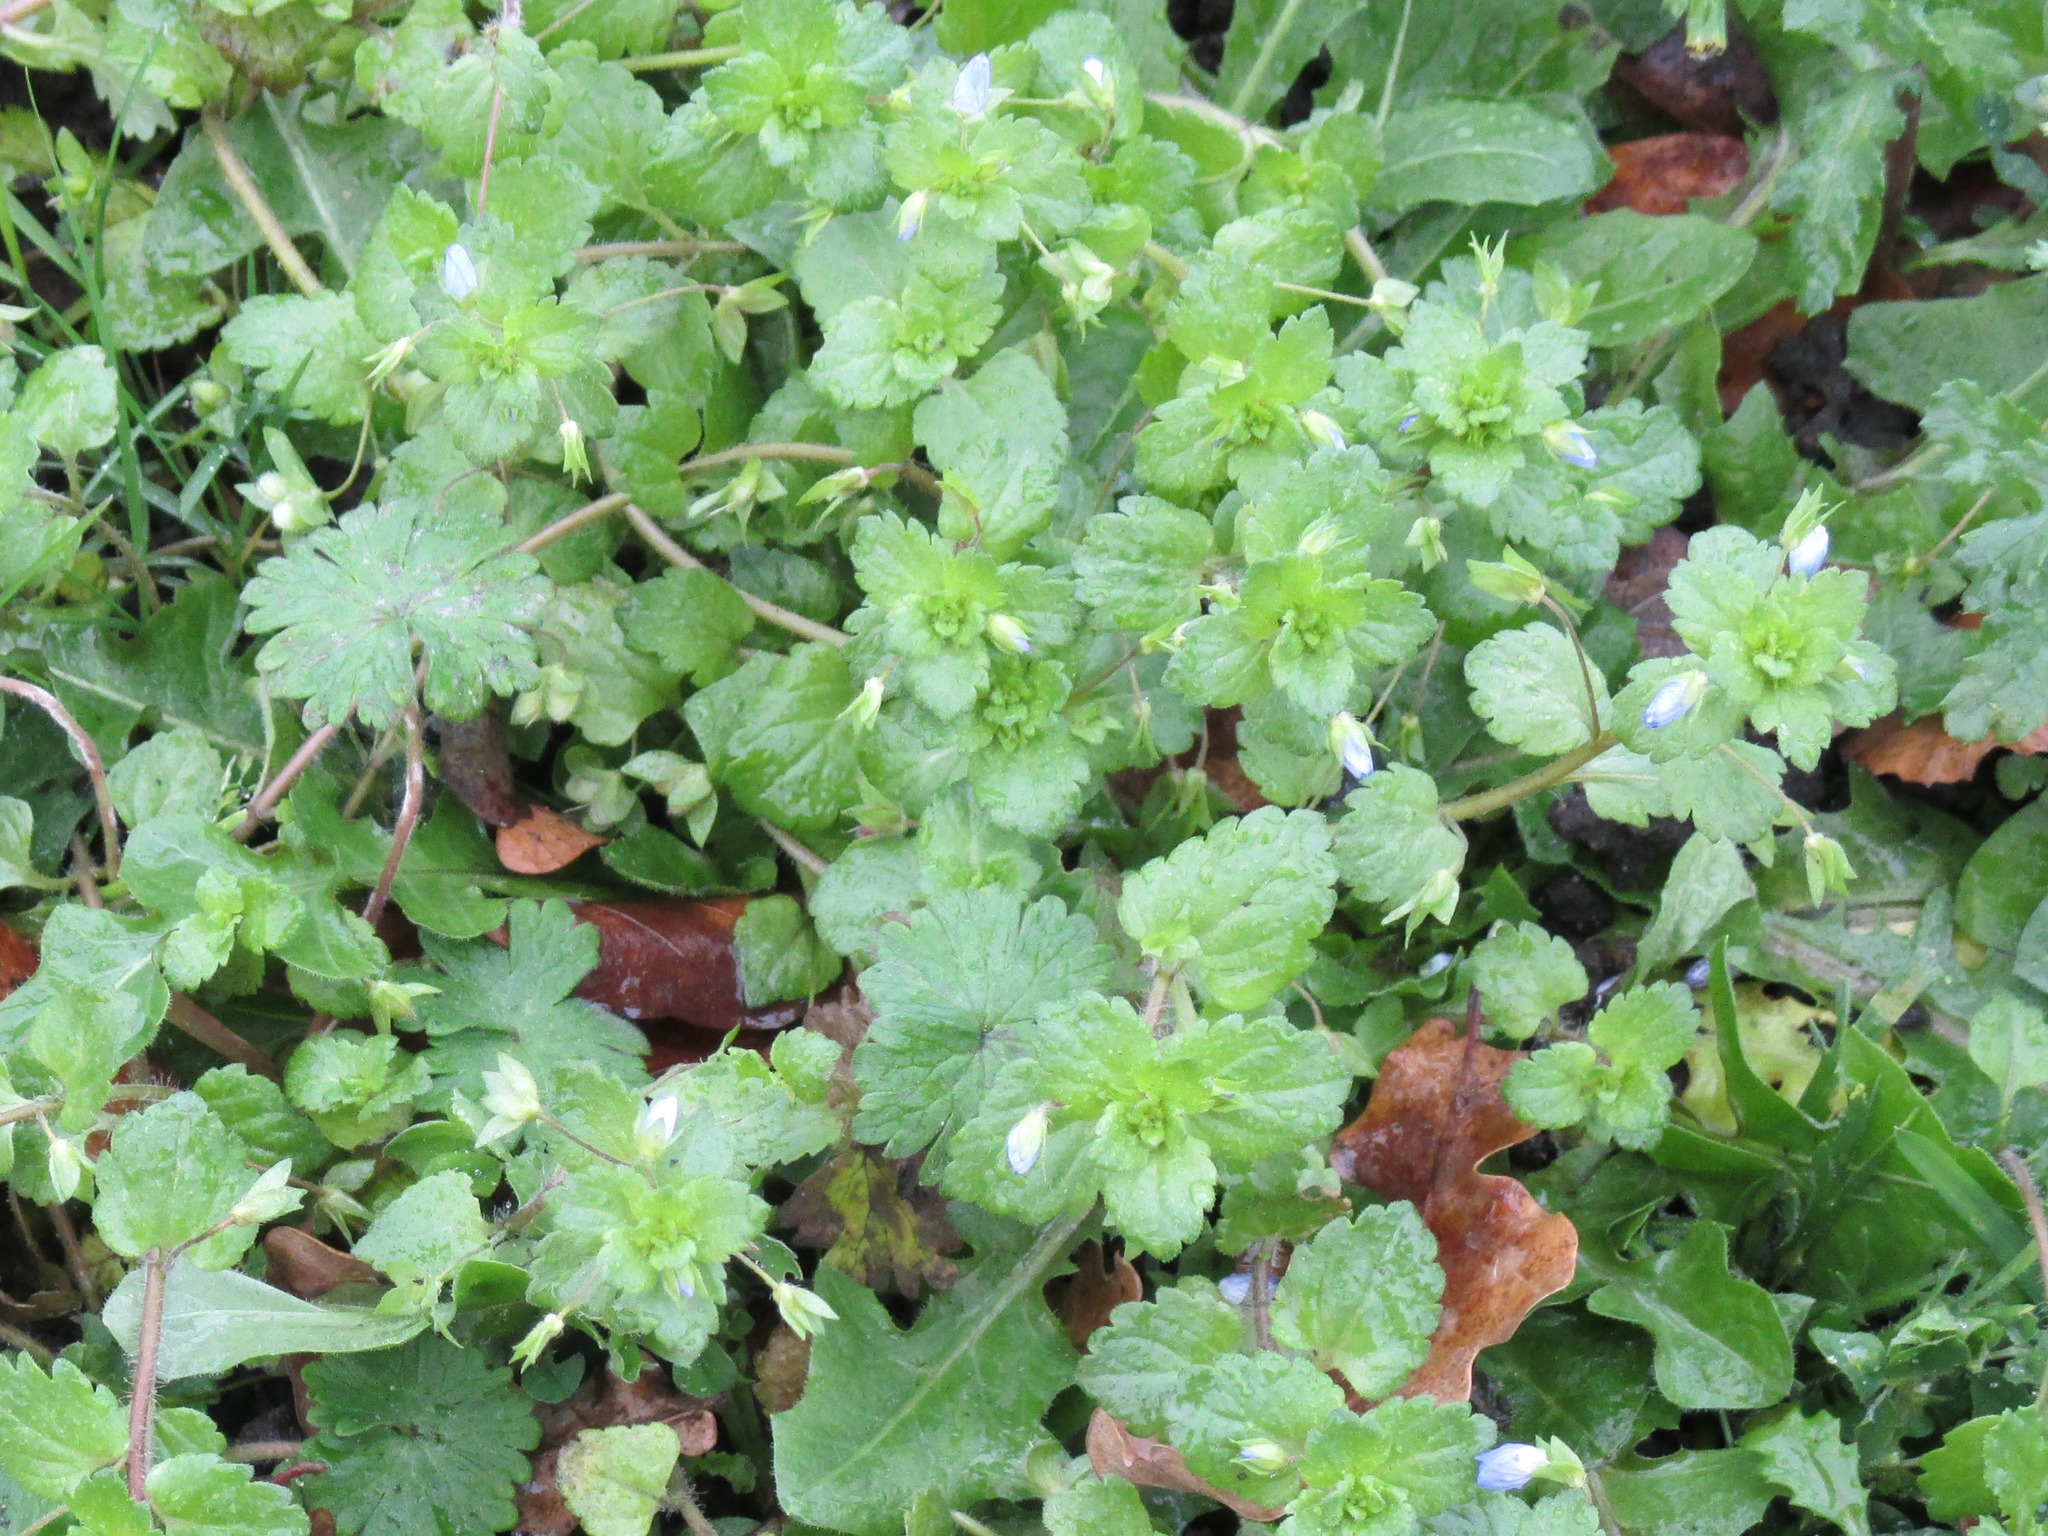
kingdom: Plantae
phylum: Tracheophyta
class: Magnoliopsida
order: Lamiales
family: Plantaginaceae
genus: Veronica
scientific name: Veronica persica
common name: Common field-speedwell
